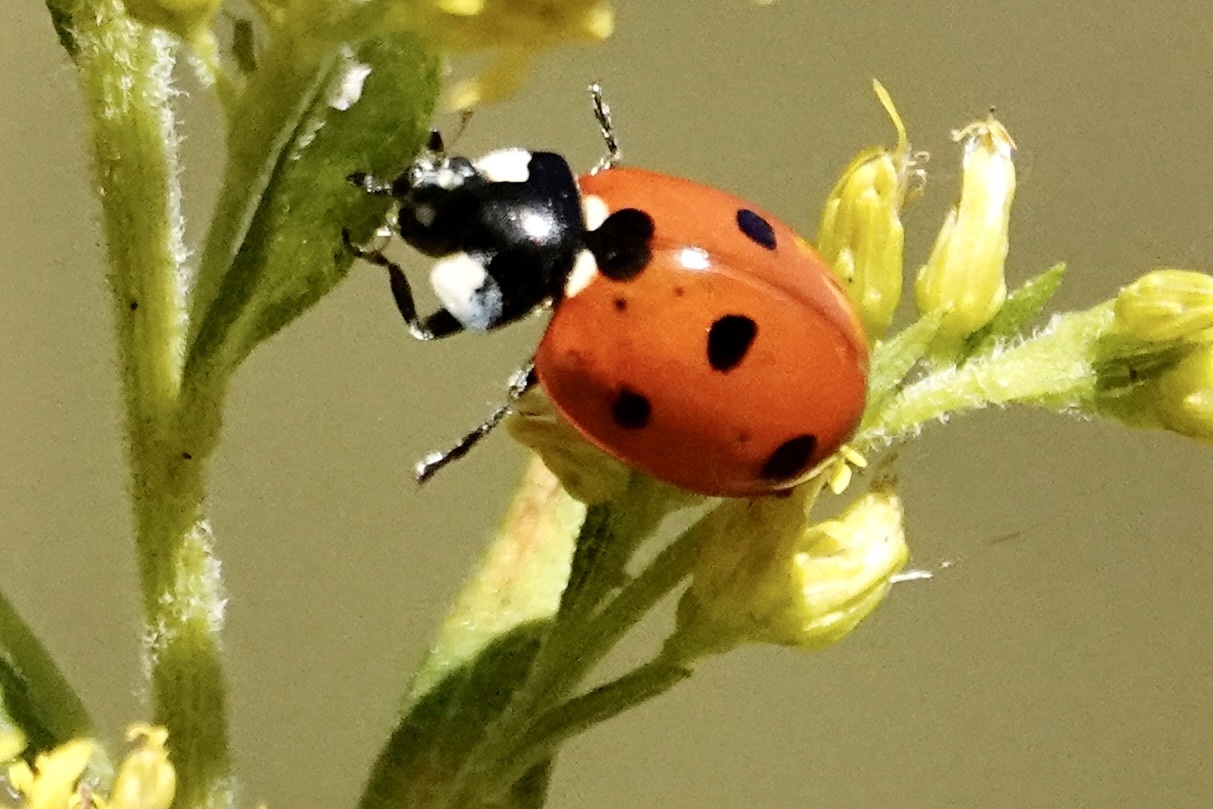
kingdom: Animalia
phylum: Arthropoda
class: Insecta
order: Coleoptera
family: Coccinellidae
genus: Coccinella
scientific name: Coccinella septempunctata
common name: Sevenspotted lady beetle
